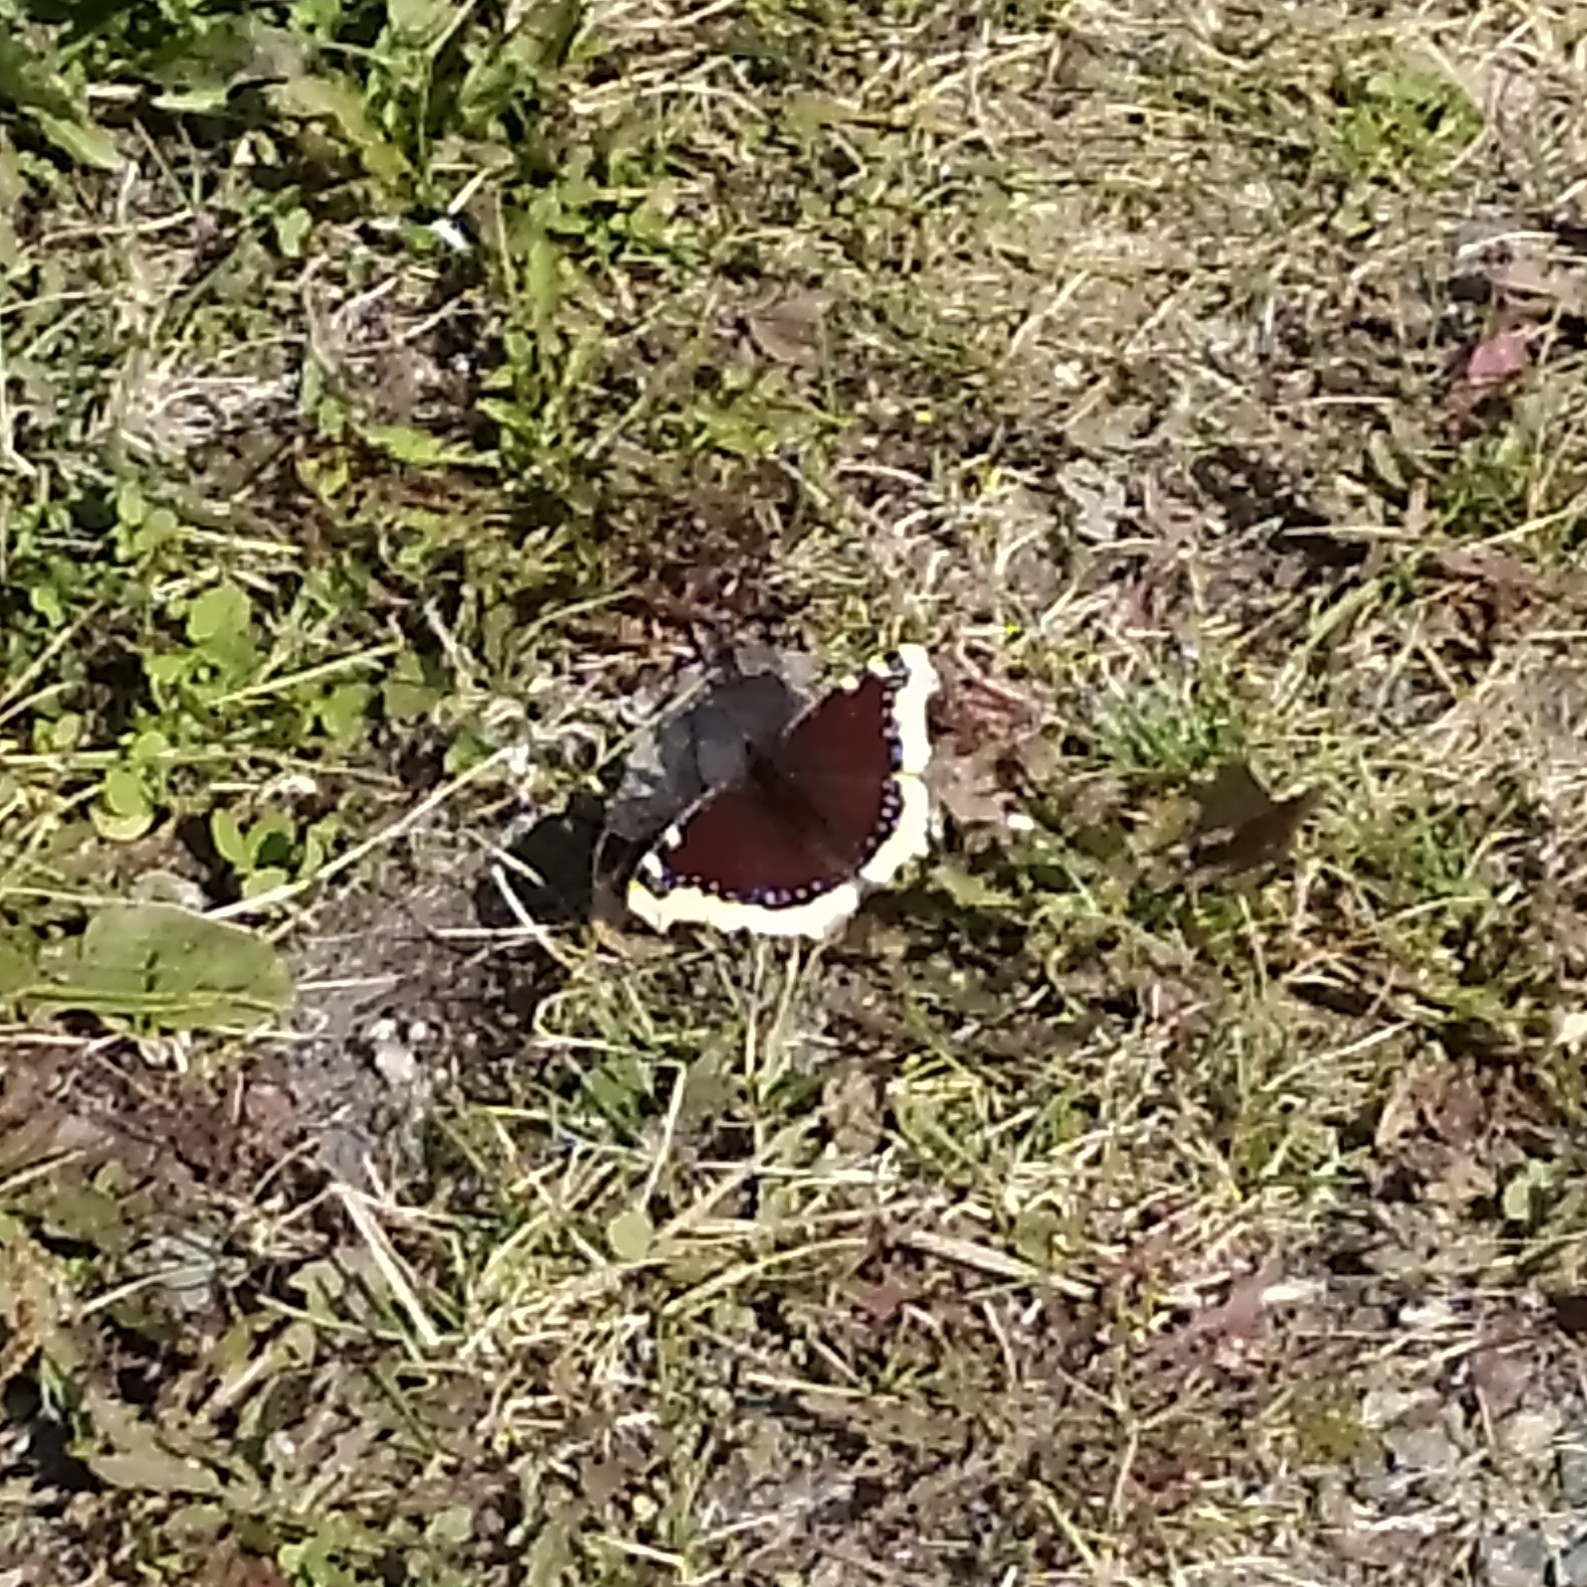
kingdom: Animalia
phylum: Arthropoda
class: Insecta
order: Lepidoptera
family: Nymphalidae
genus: Nymphalis
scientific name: Nymphalis antiopa
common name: Camberwell beauty
